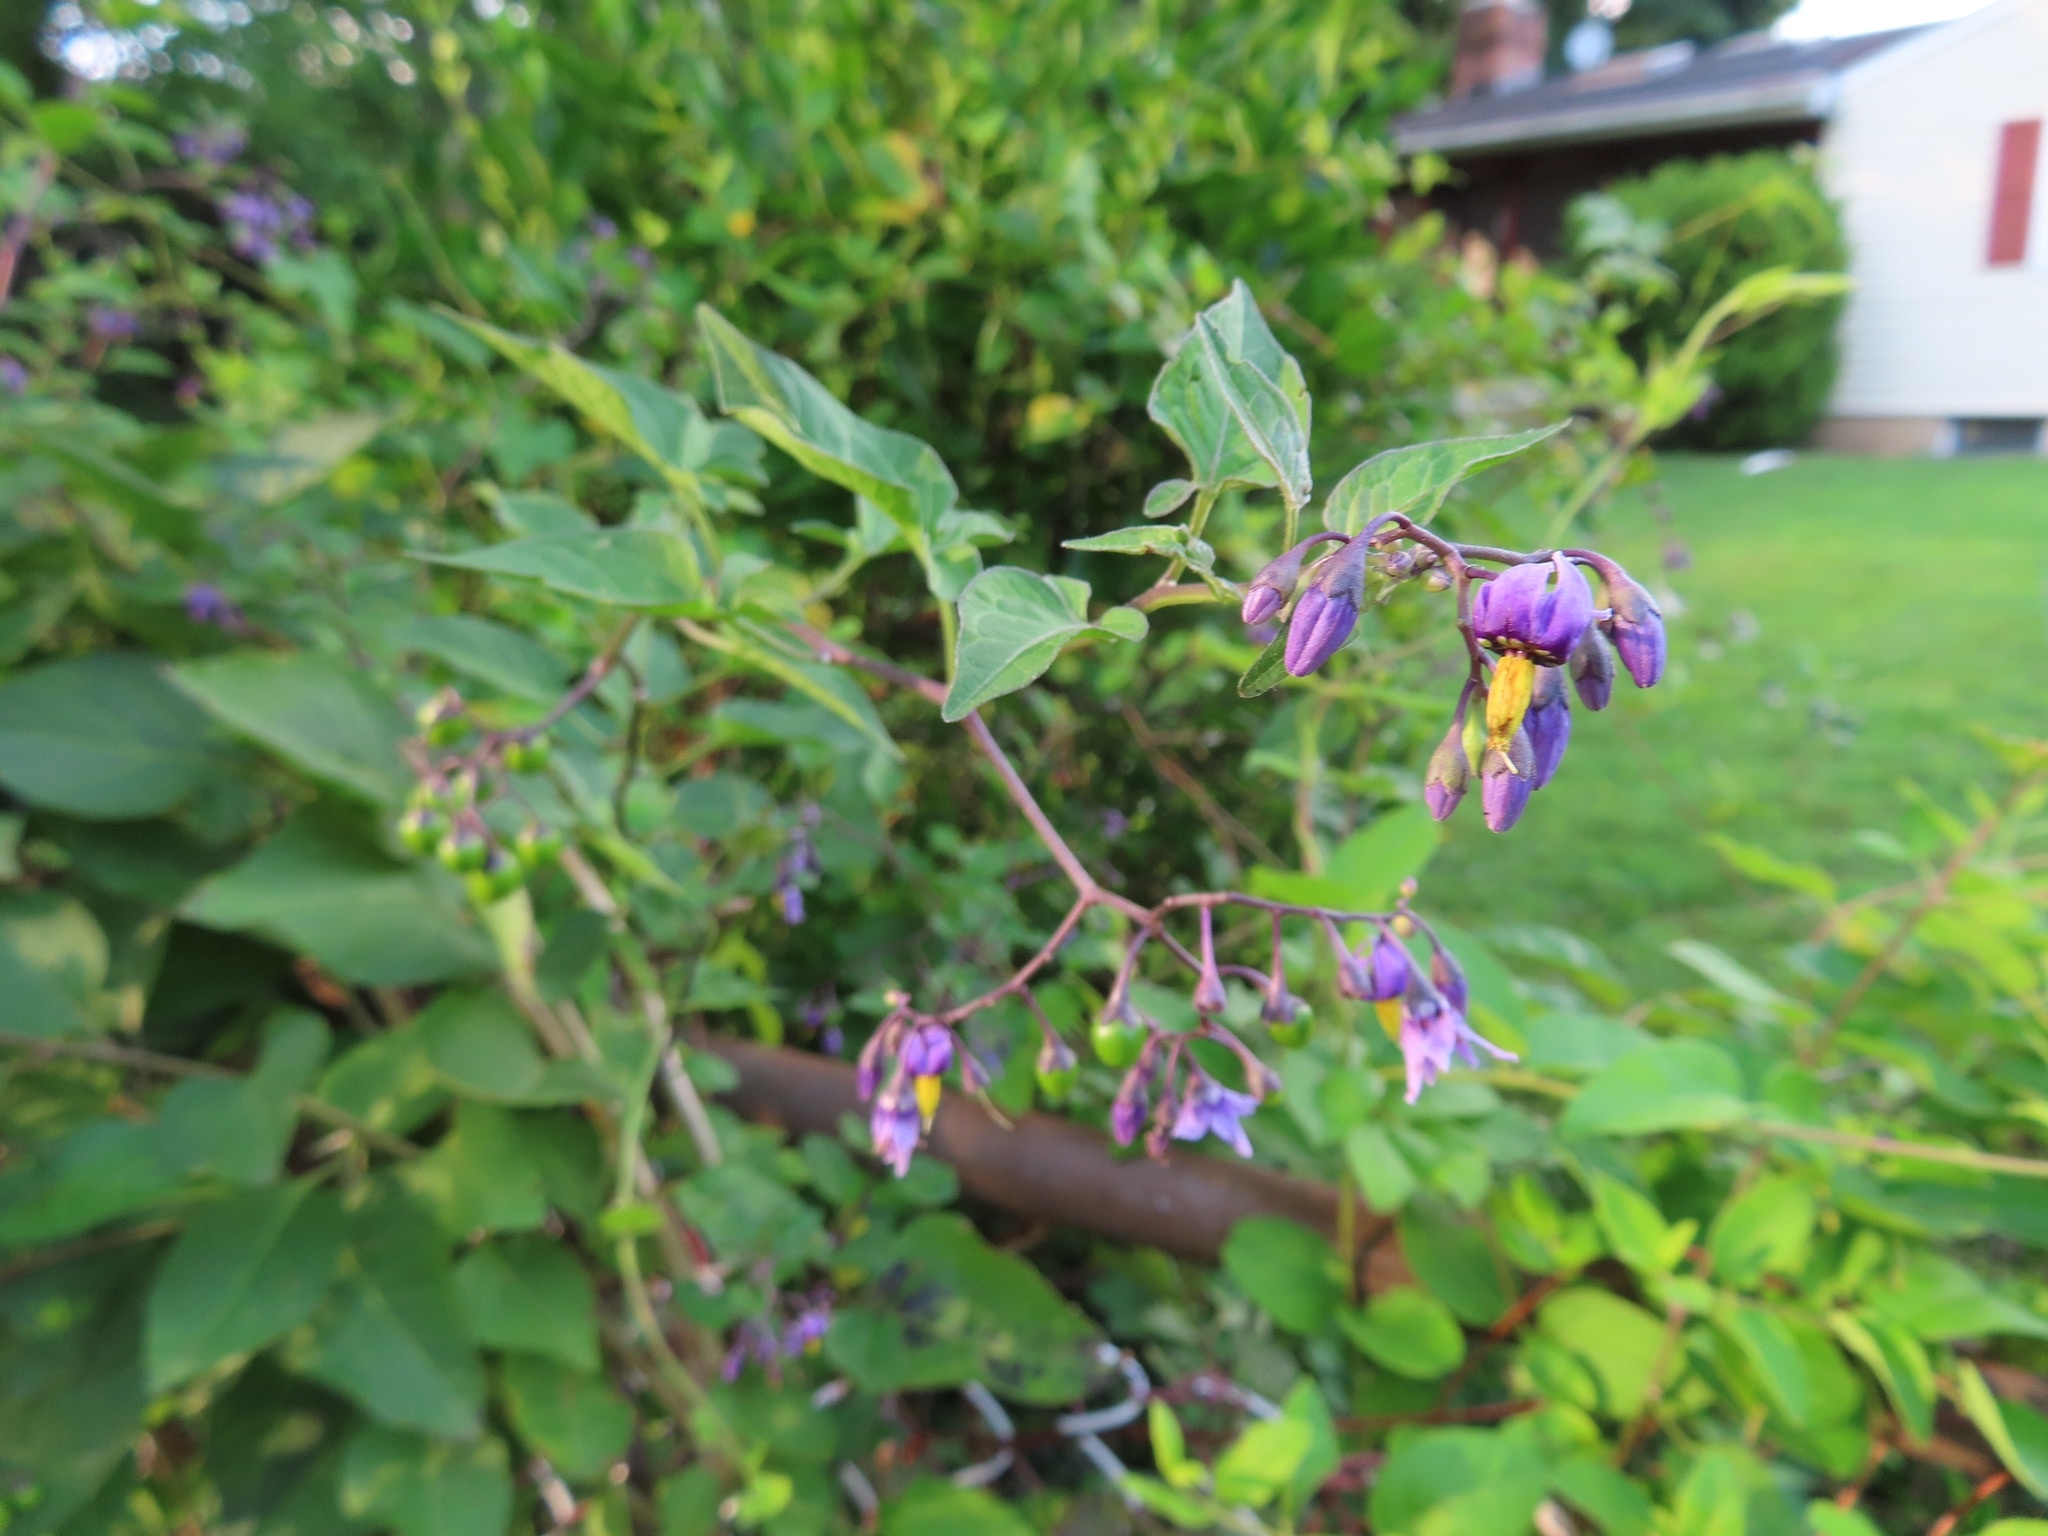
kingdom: Plantae
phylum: Tracheophyta
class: Magnoliopsida
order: Solanales
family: Solanaceae
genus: Solanum
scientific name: Solanum dulcamara
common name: Climbing nightshade
